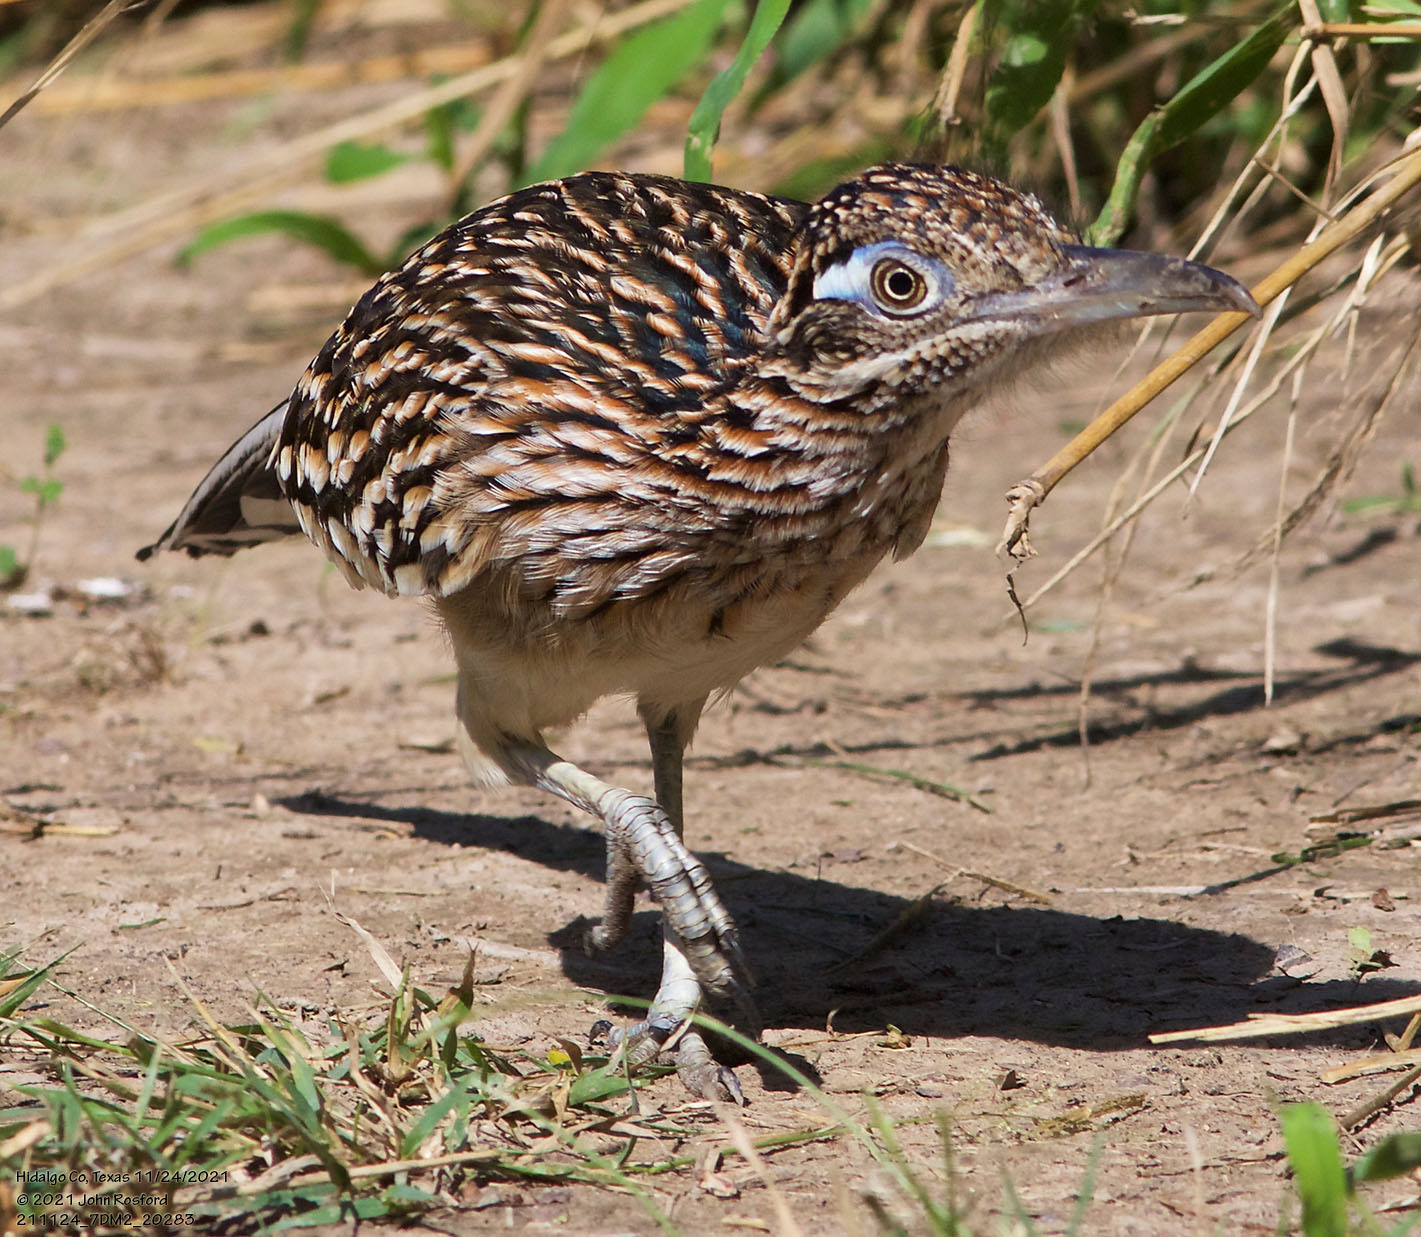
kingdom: Animalia
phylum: Chordata
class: Aves
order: Cuculiformes
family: Cuculidae
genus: Geococcyx
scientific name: Geococcyx californianus
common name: Greater roadrunner
